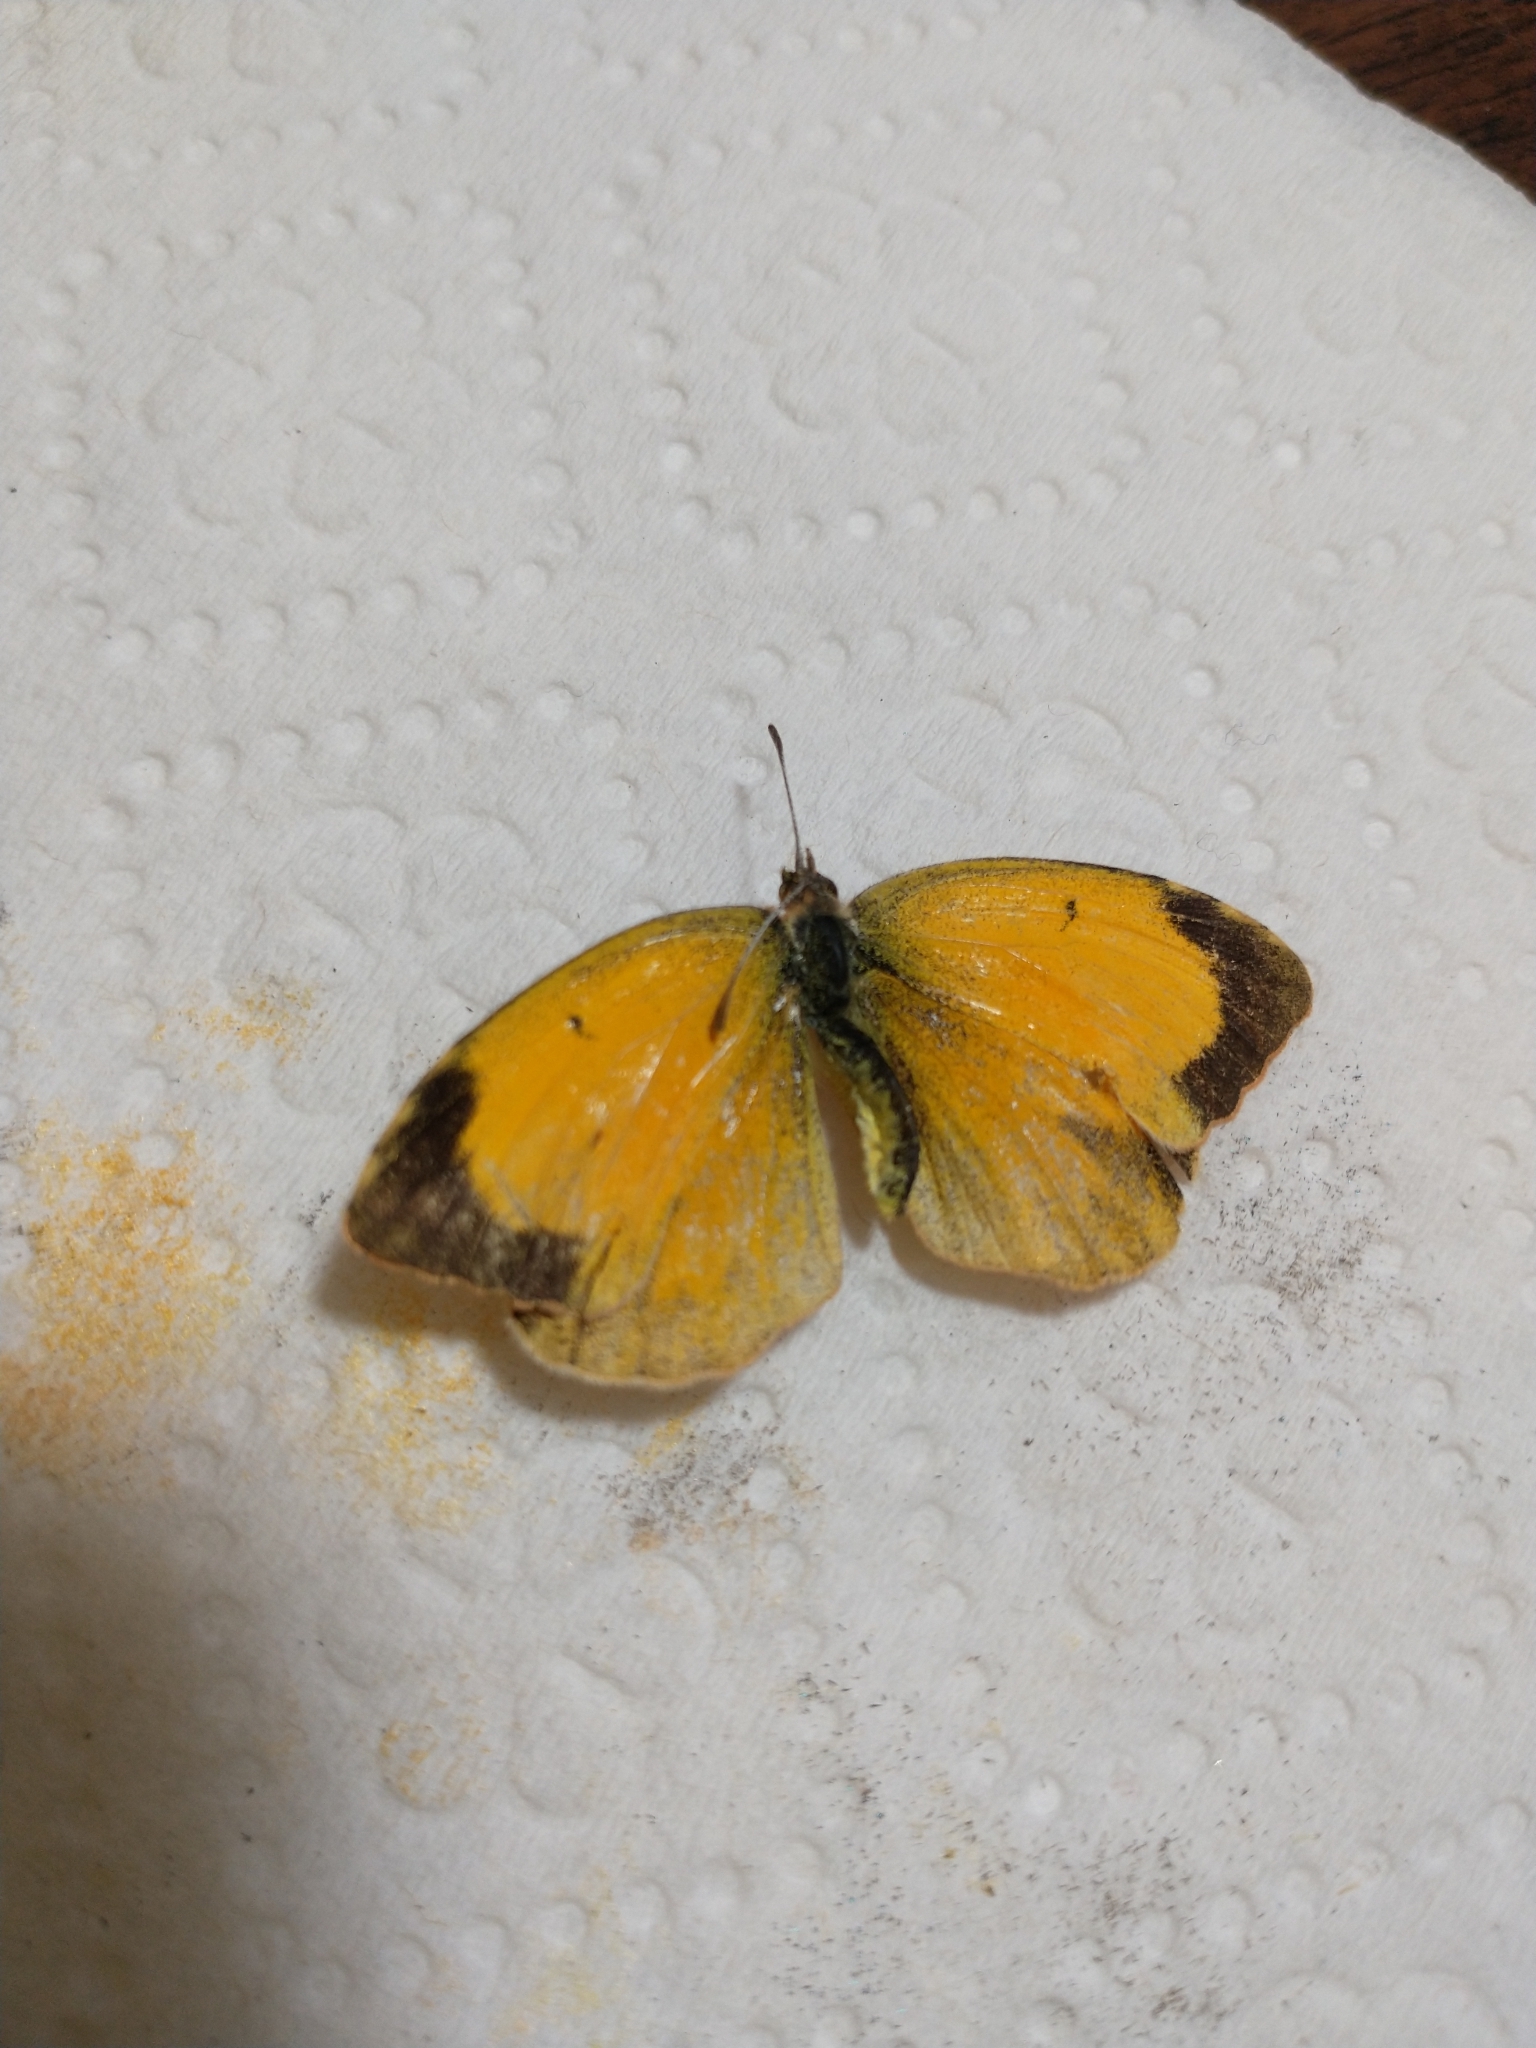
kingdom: Animalia
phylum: Arthropoda
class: Insecta
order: Lepidoptera
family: Pieridae
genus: Abaeis
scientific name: Abaeis nicippe
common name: Sleepy orange
